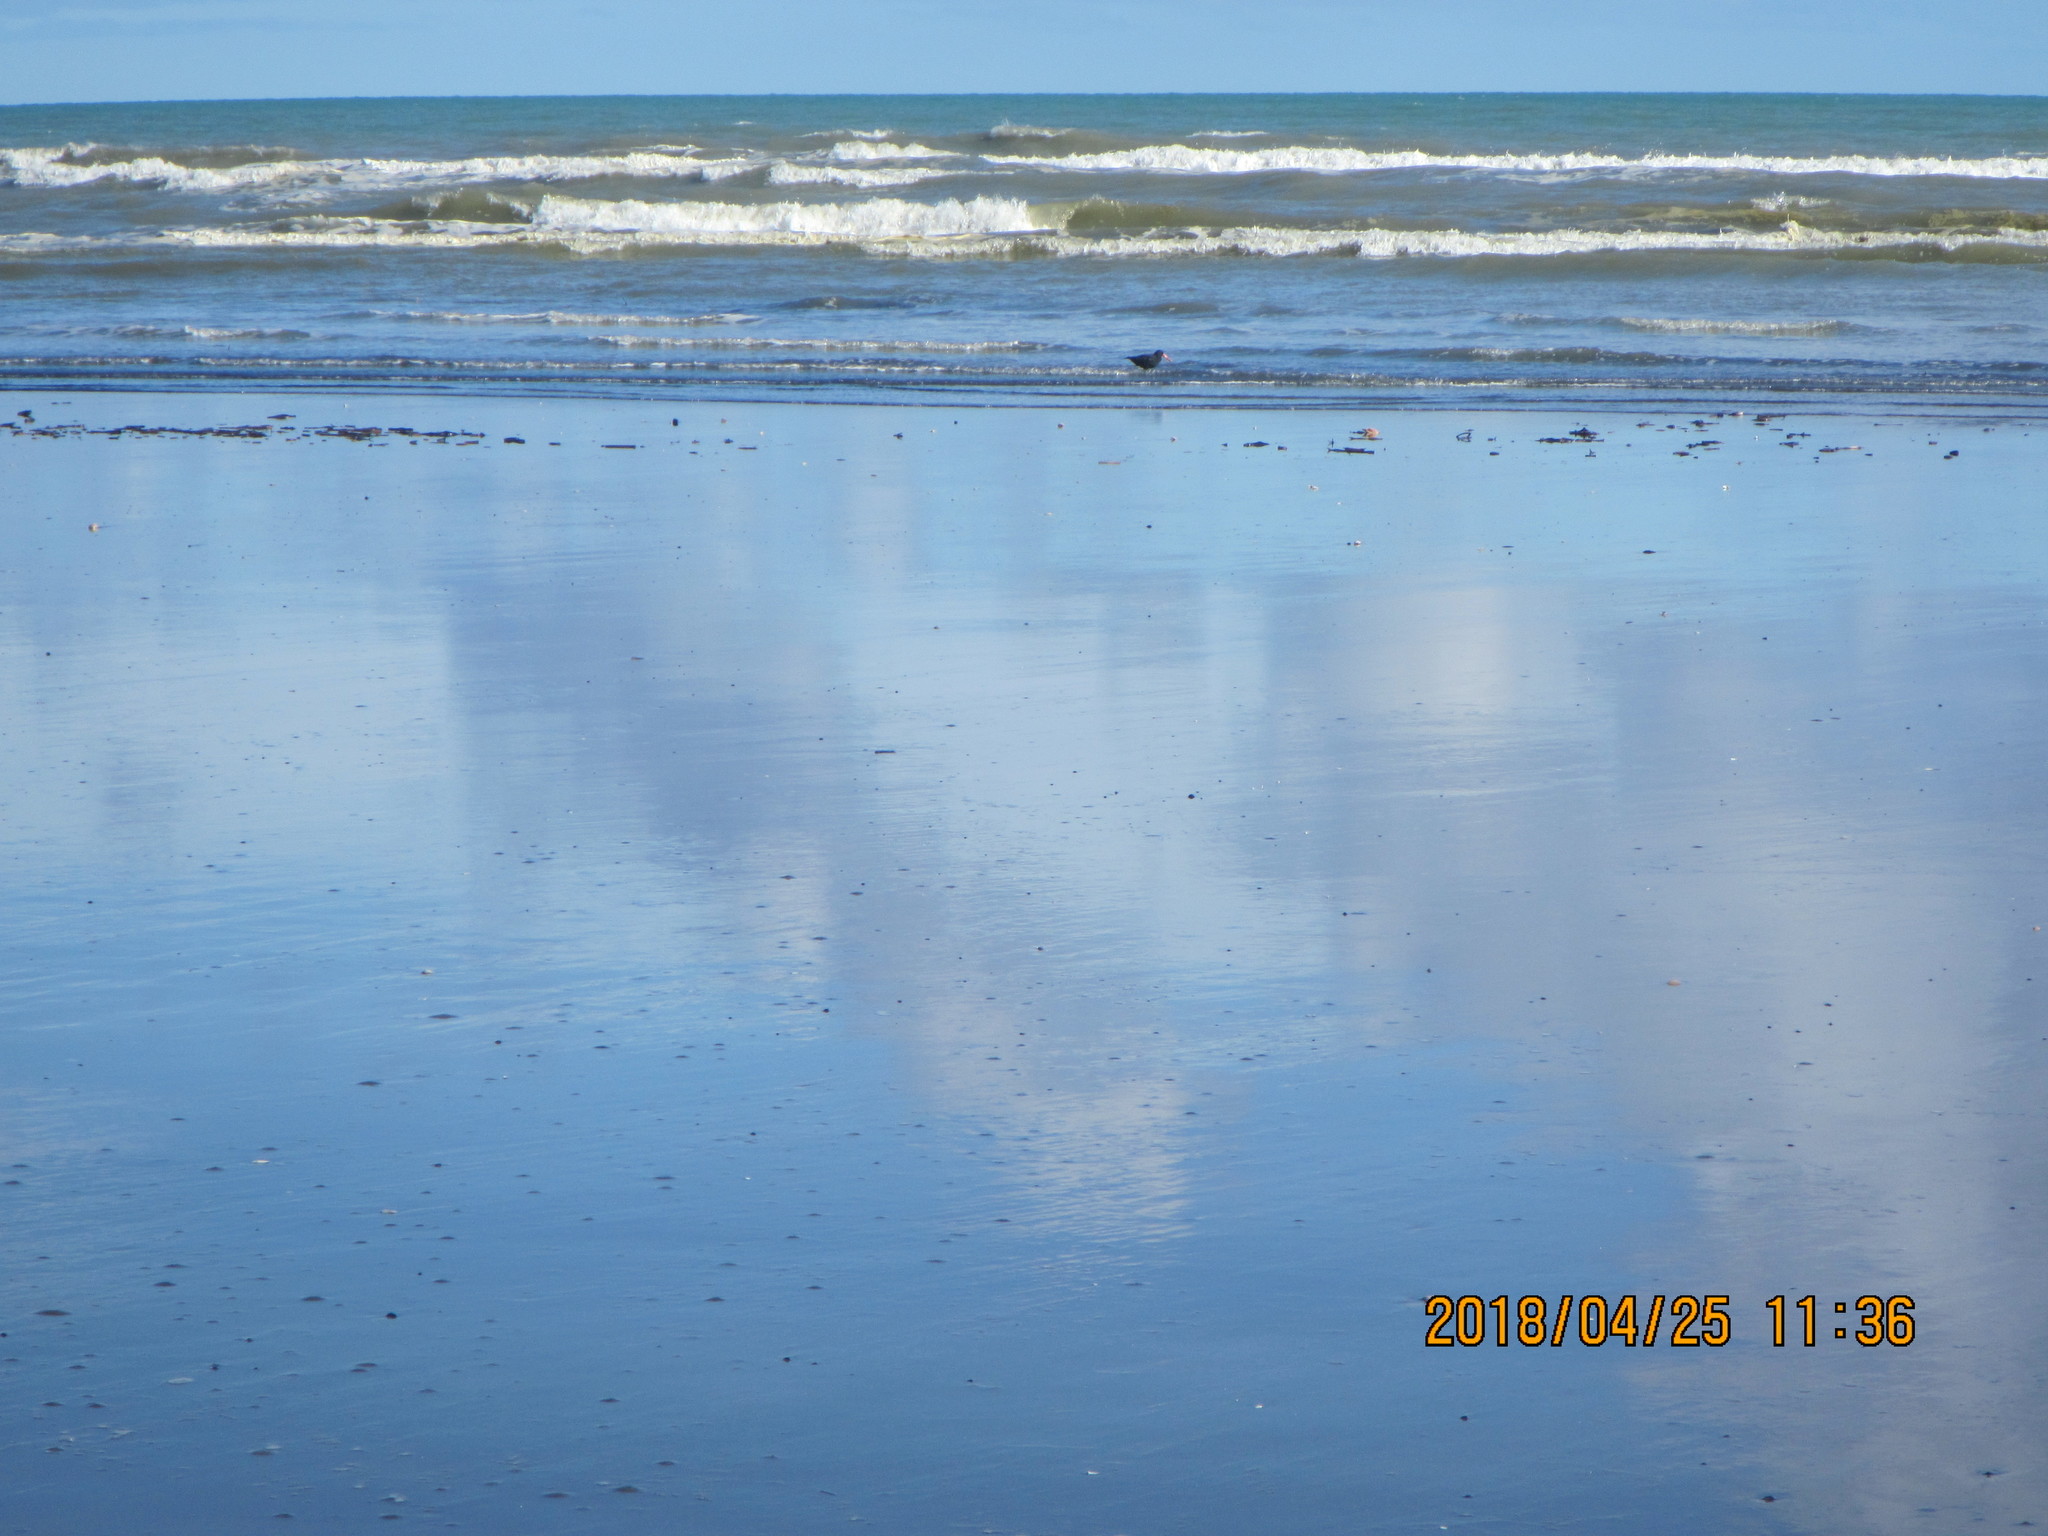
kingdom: Animalia
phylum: Chordata
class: Aves
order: Charadriiformes
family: Haematopodidae
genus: Haematopus
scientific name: Haematopus unicolor
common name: Variable oystercatcher
